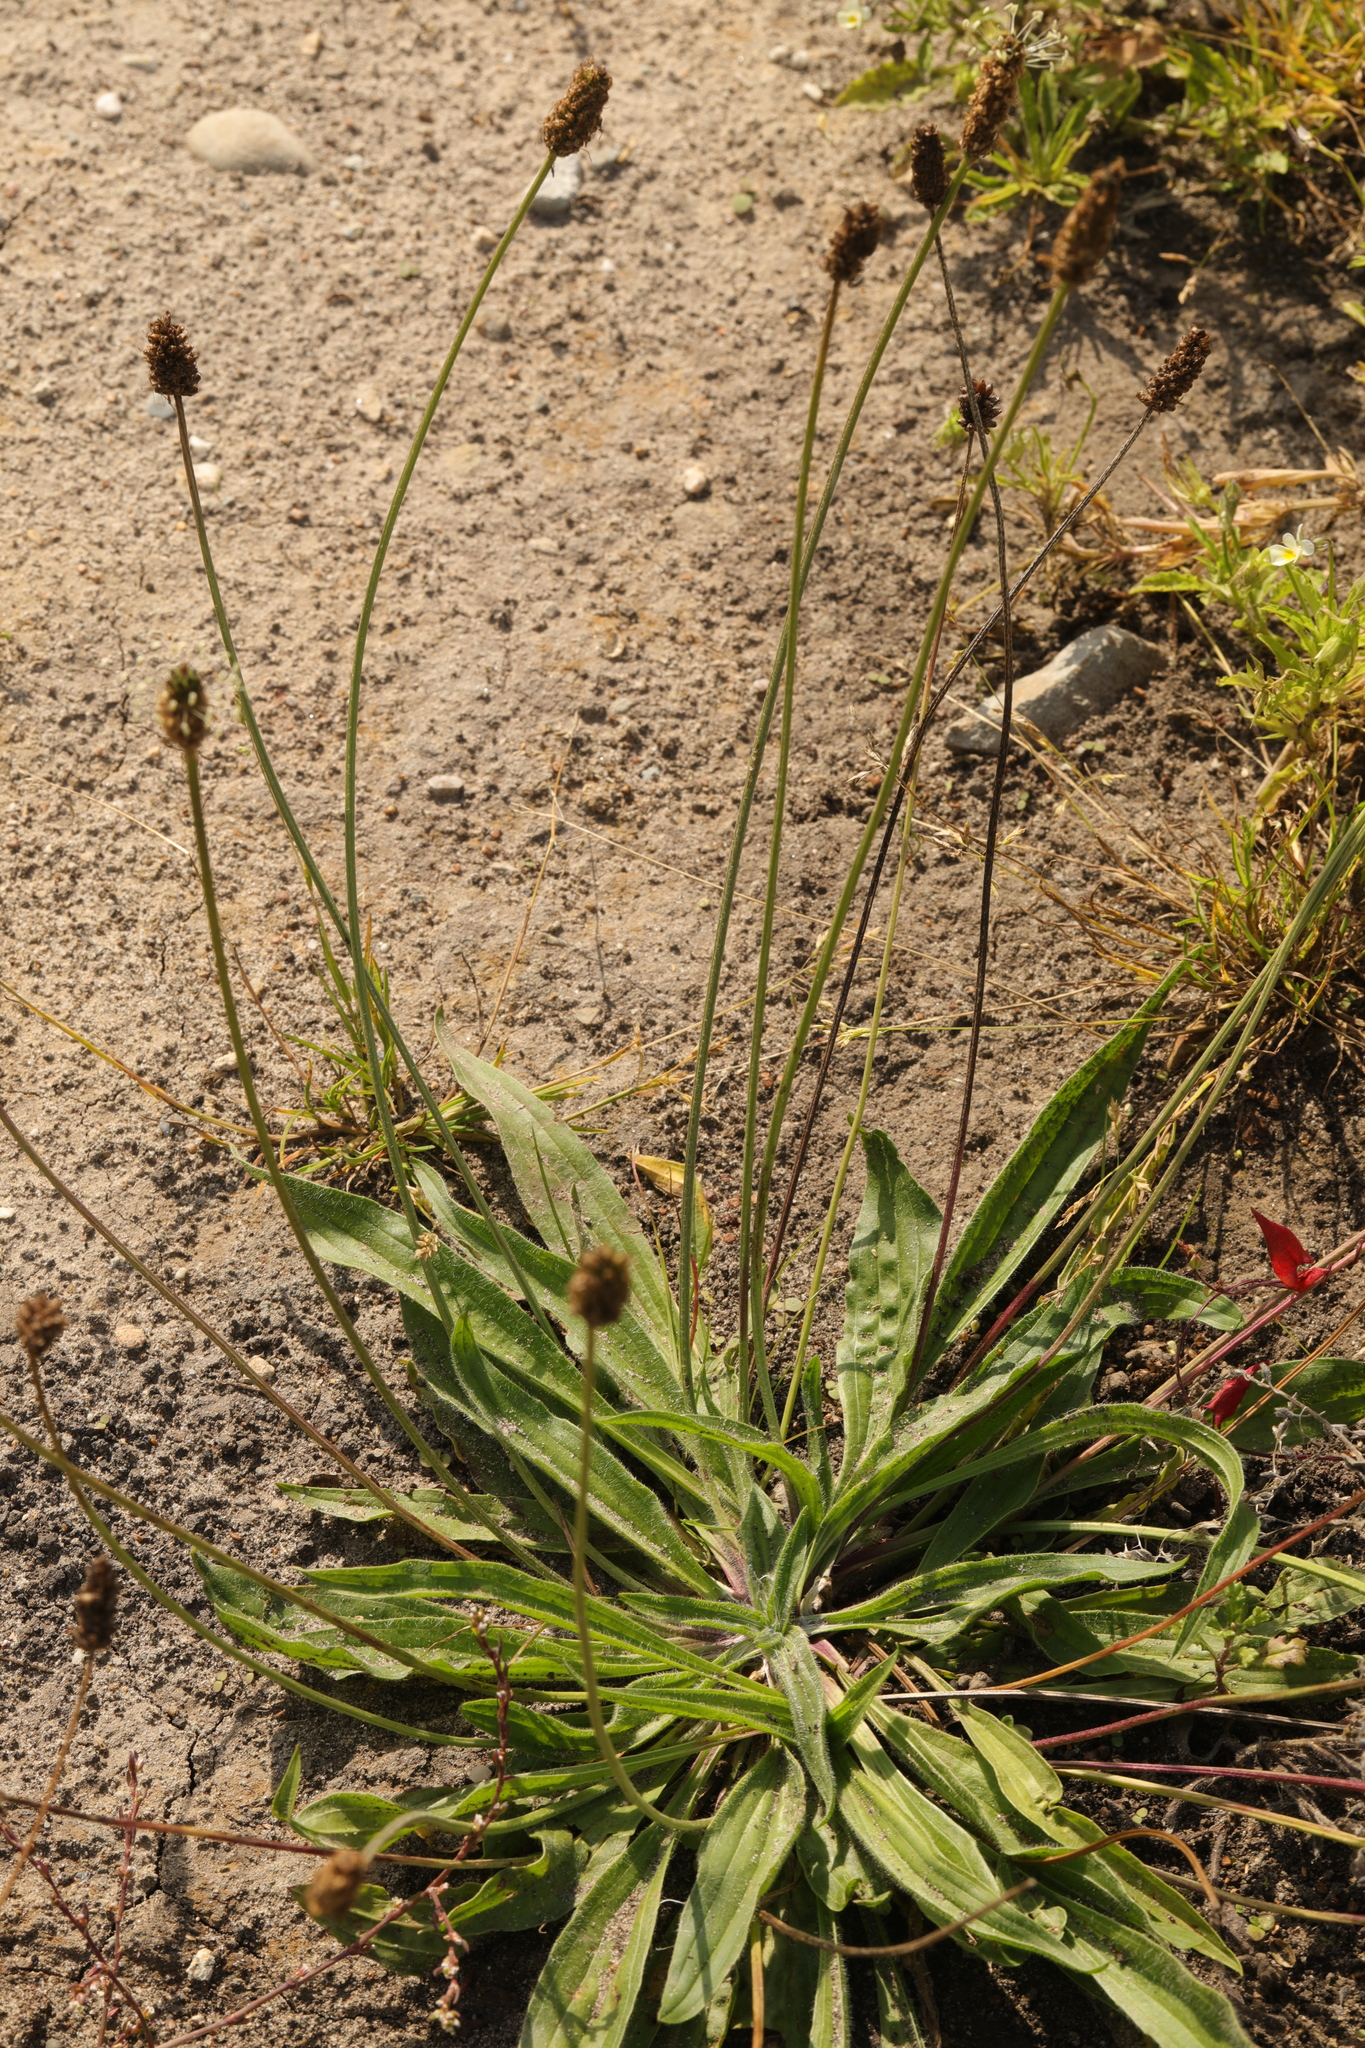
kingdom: Plantae
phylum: Tracheophyta
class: Magnoliopsida
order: Lamiales
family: Plantaginaceae
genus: Plantago
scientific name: Plantago lanceolata
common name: Ribwort plantain
